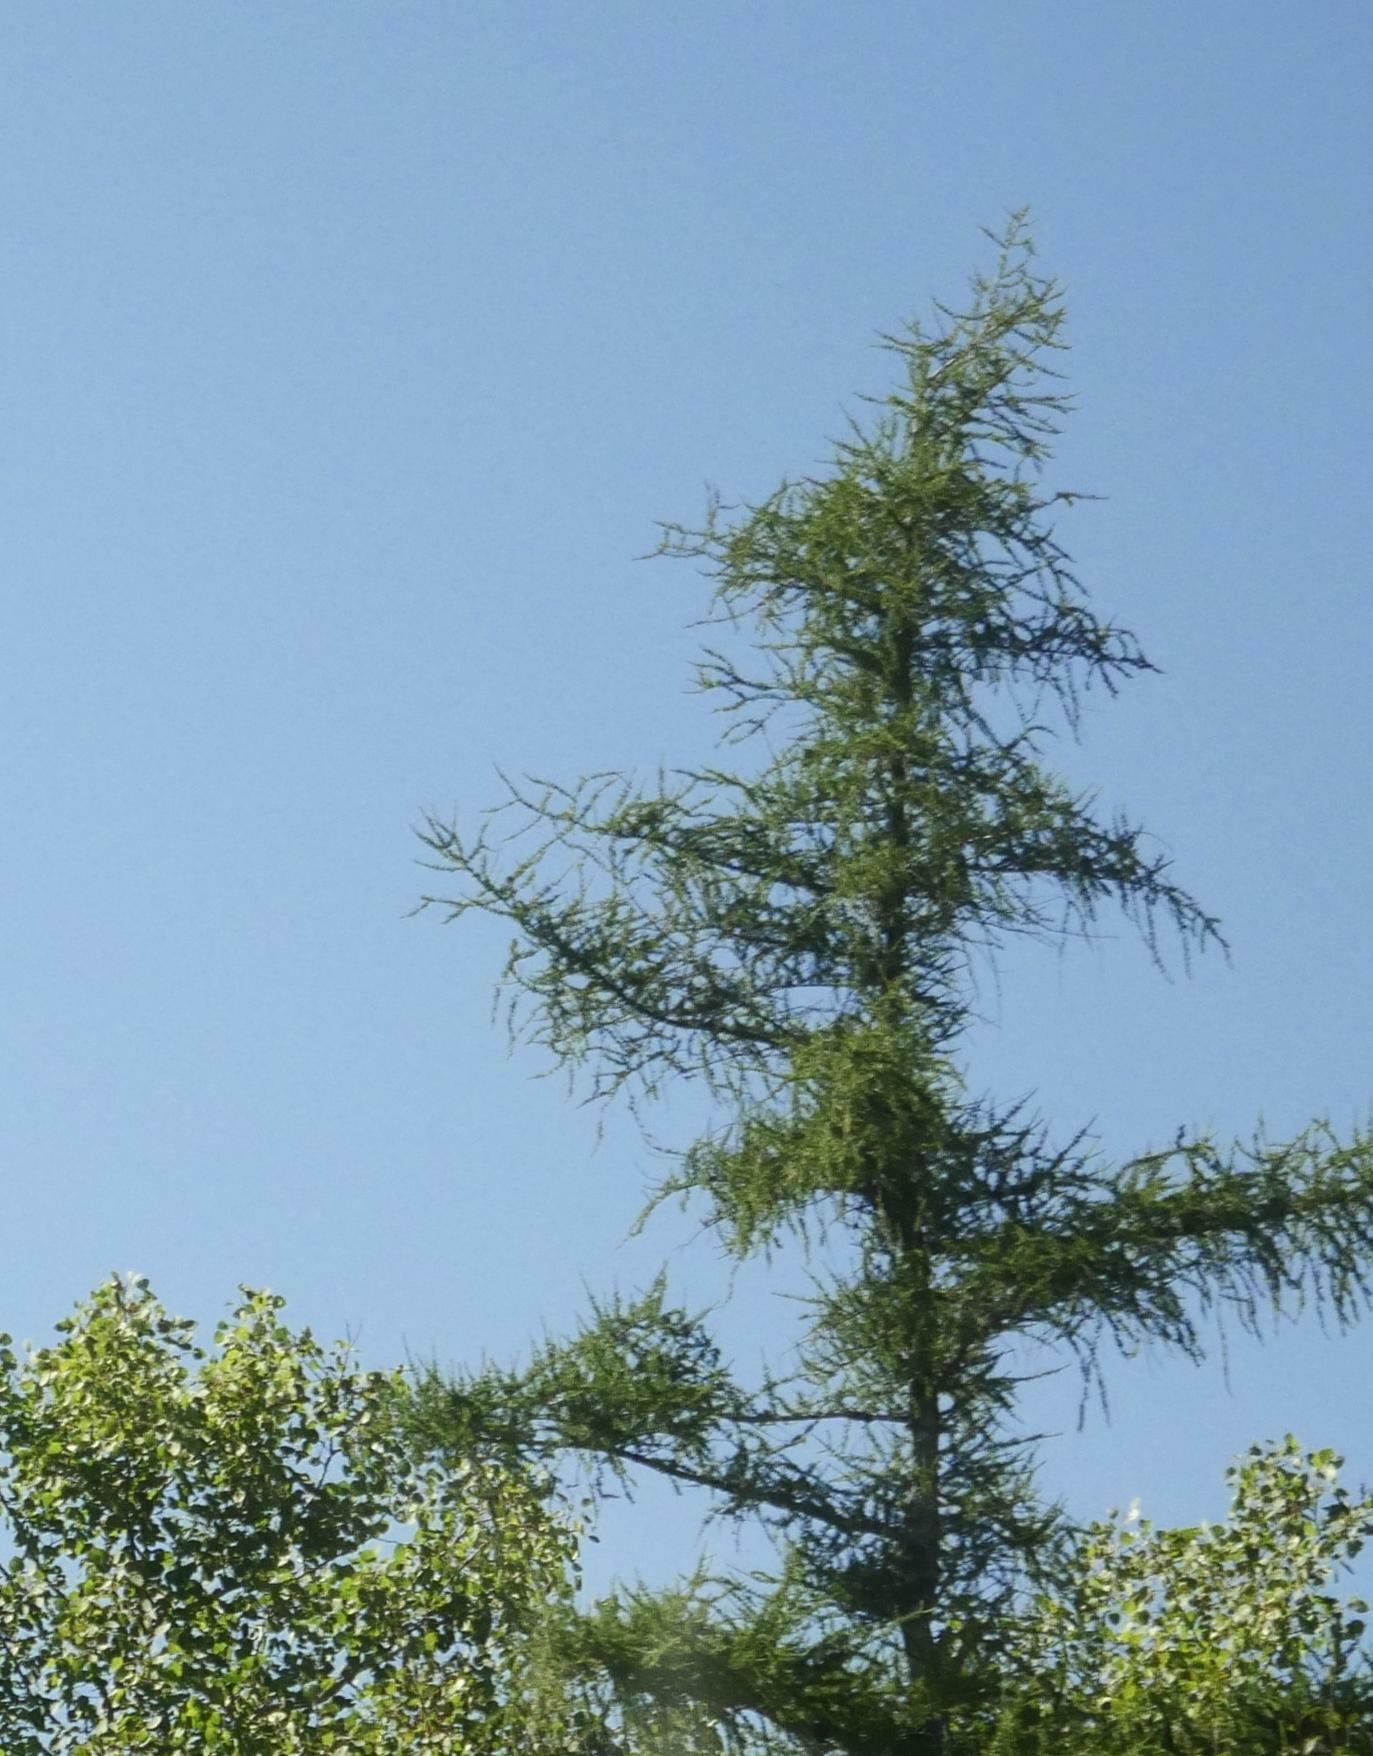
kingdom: Plantae
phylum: Tracheophyta
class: Pinopsida
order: Pinales
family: Pinaceae
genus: Larix
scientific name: Larix laricina
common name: American larch
